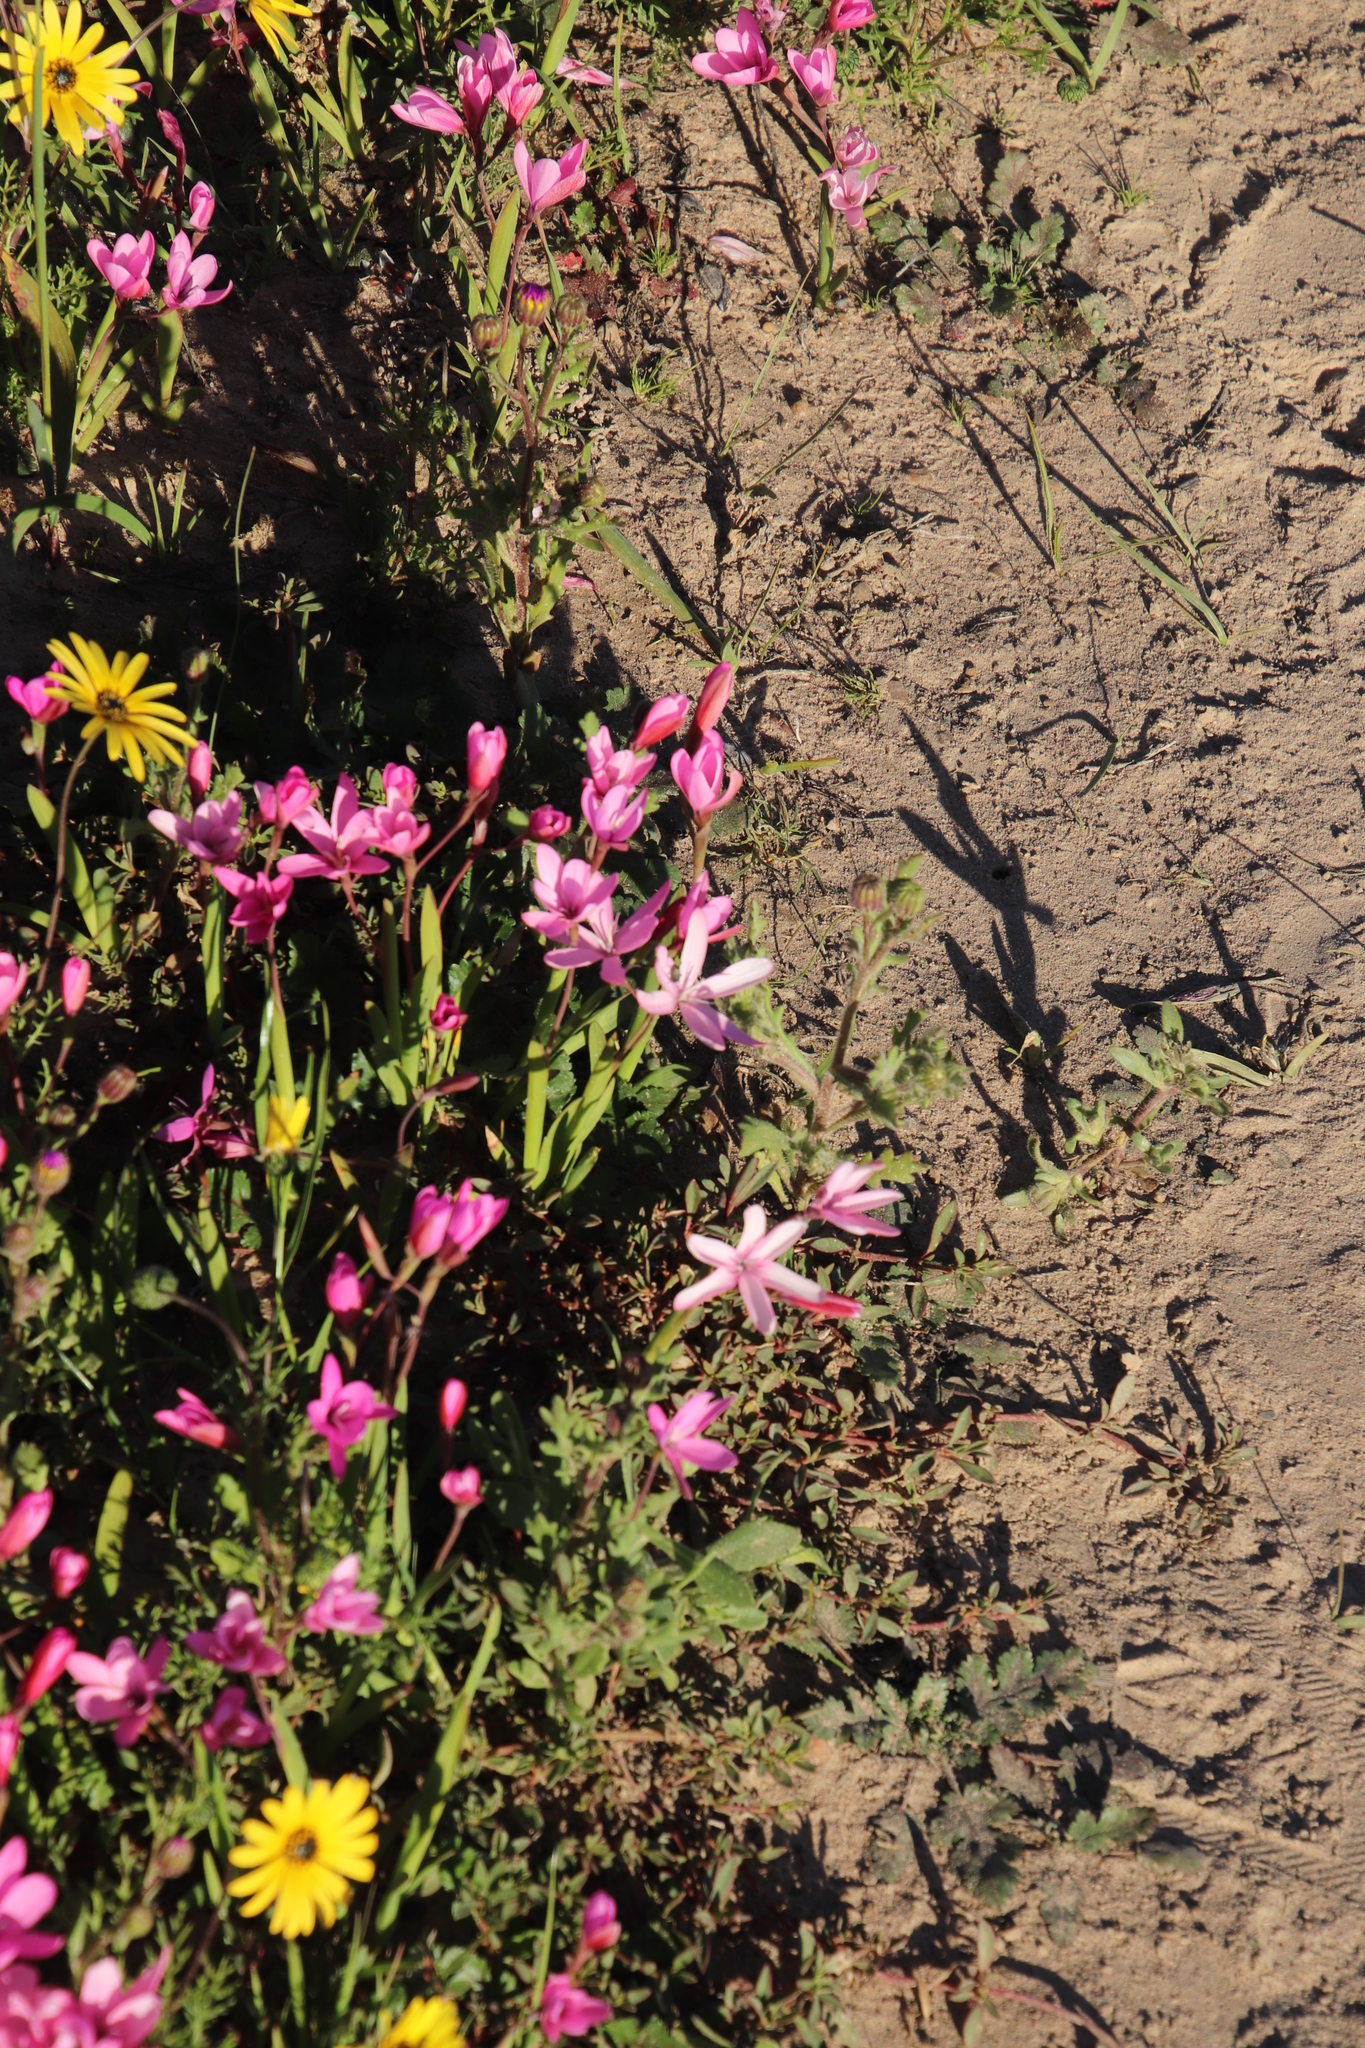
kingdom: Plantae
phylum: Tracheophyta
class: Liliopsida
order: Asparagales
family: Iridaceae
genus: Hesperantha
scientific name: Hesperantha pauciflora
